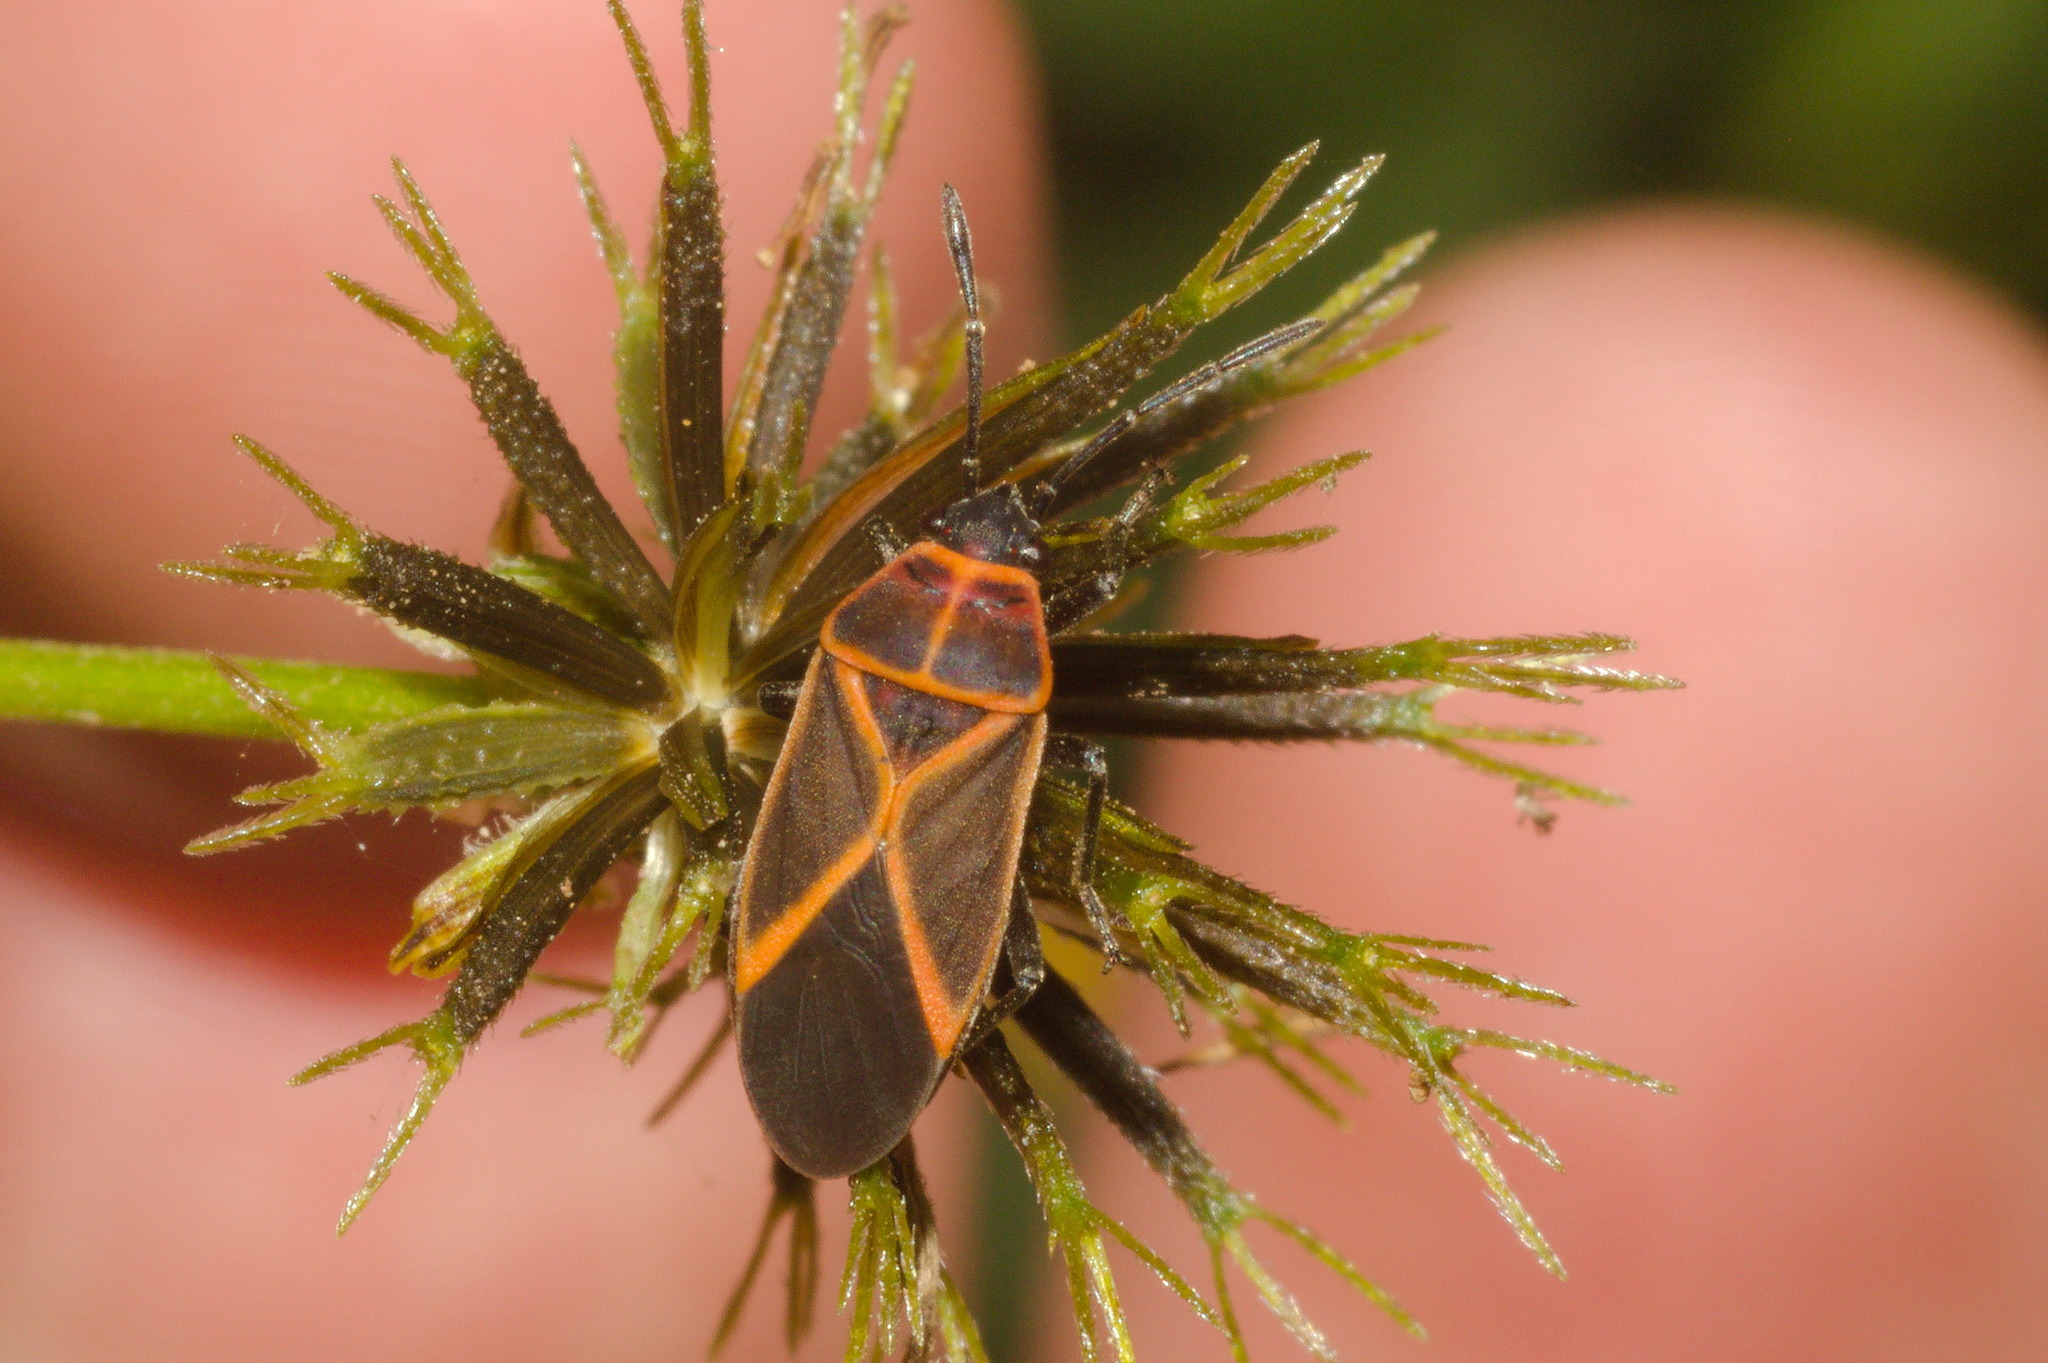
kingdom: Animalia
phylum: Arthropoda
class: Insecta
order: Hemiptera
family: Lygaeidae
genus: Craspeduchus
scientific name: Craspeduchus xanthostaurus
